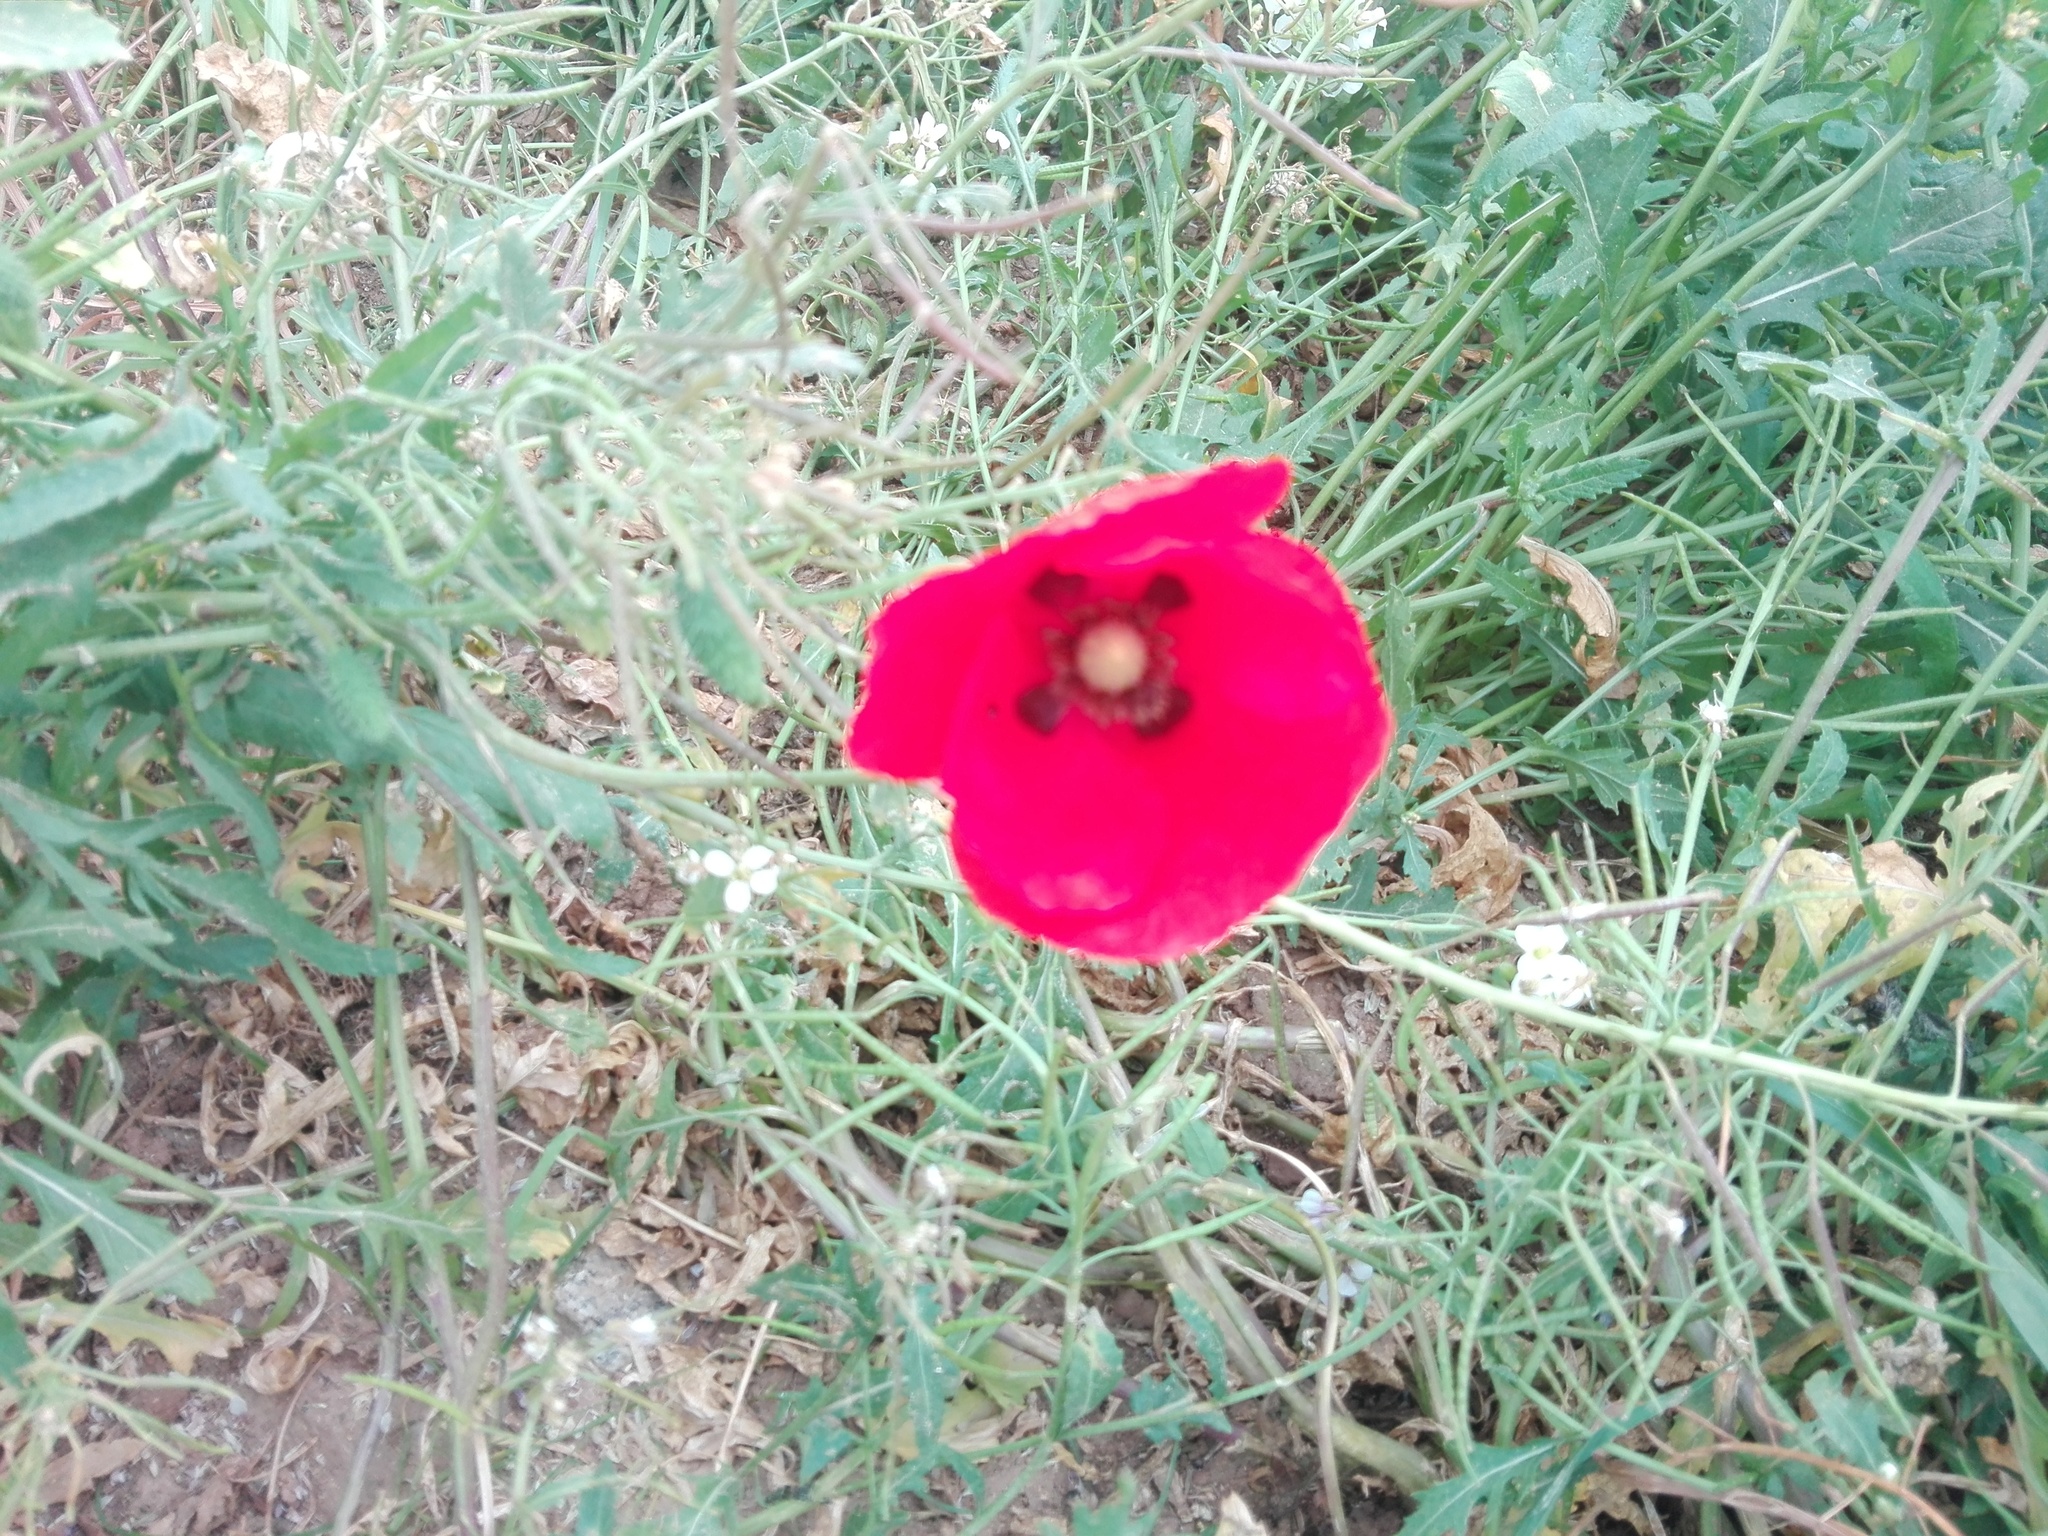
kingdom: Plantae
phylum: Tracheophyta
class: Magnoliopsida
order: Ranunculales
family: Papaveraceae
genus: Papaver
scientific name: Papaver rhoeas
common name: Corn poppy
